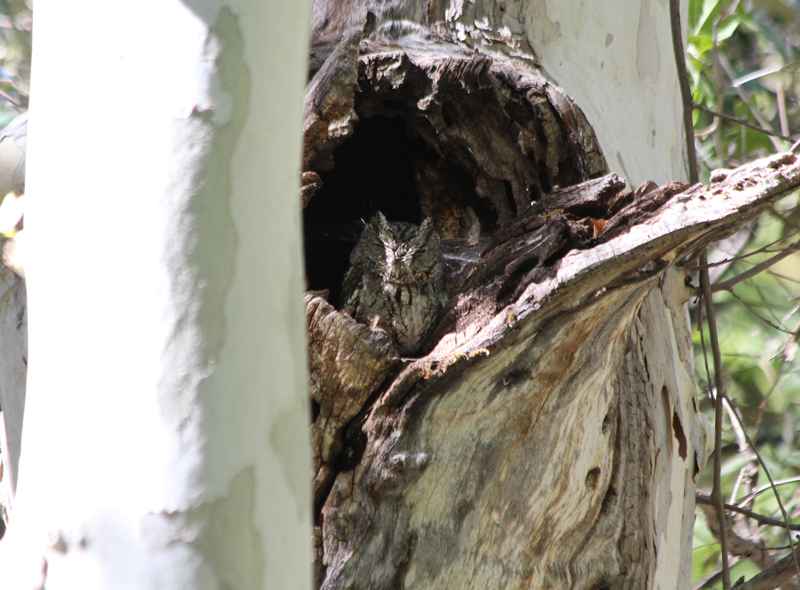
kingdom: Animalia
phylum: Chordata
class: Aves
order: Strigiformes
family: Strigidae
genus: Megascops
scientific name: Megascops trichopsis
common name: Whiskered screech-owl
